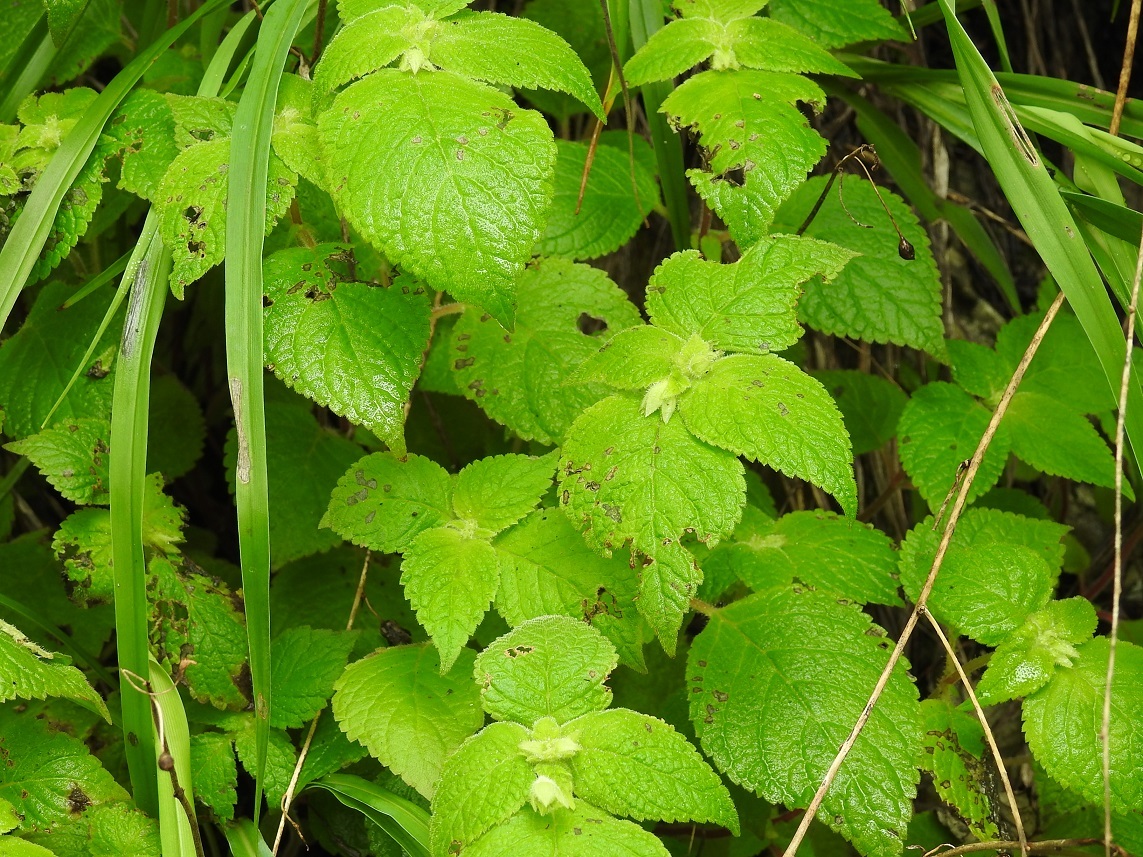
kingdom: Plantae
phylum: Tracheophyta
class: Magnoliopsida
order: Lamiales
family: Gesneriaceae
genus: Achimenes
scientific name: Achimenes misera
